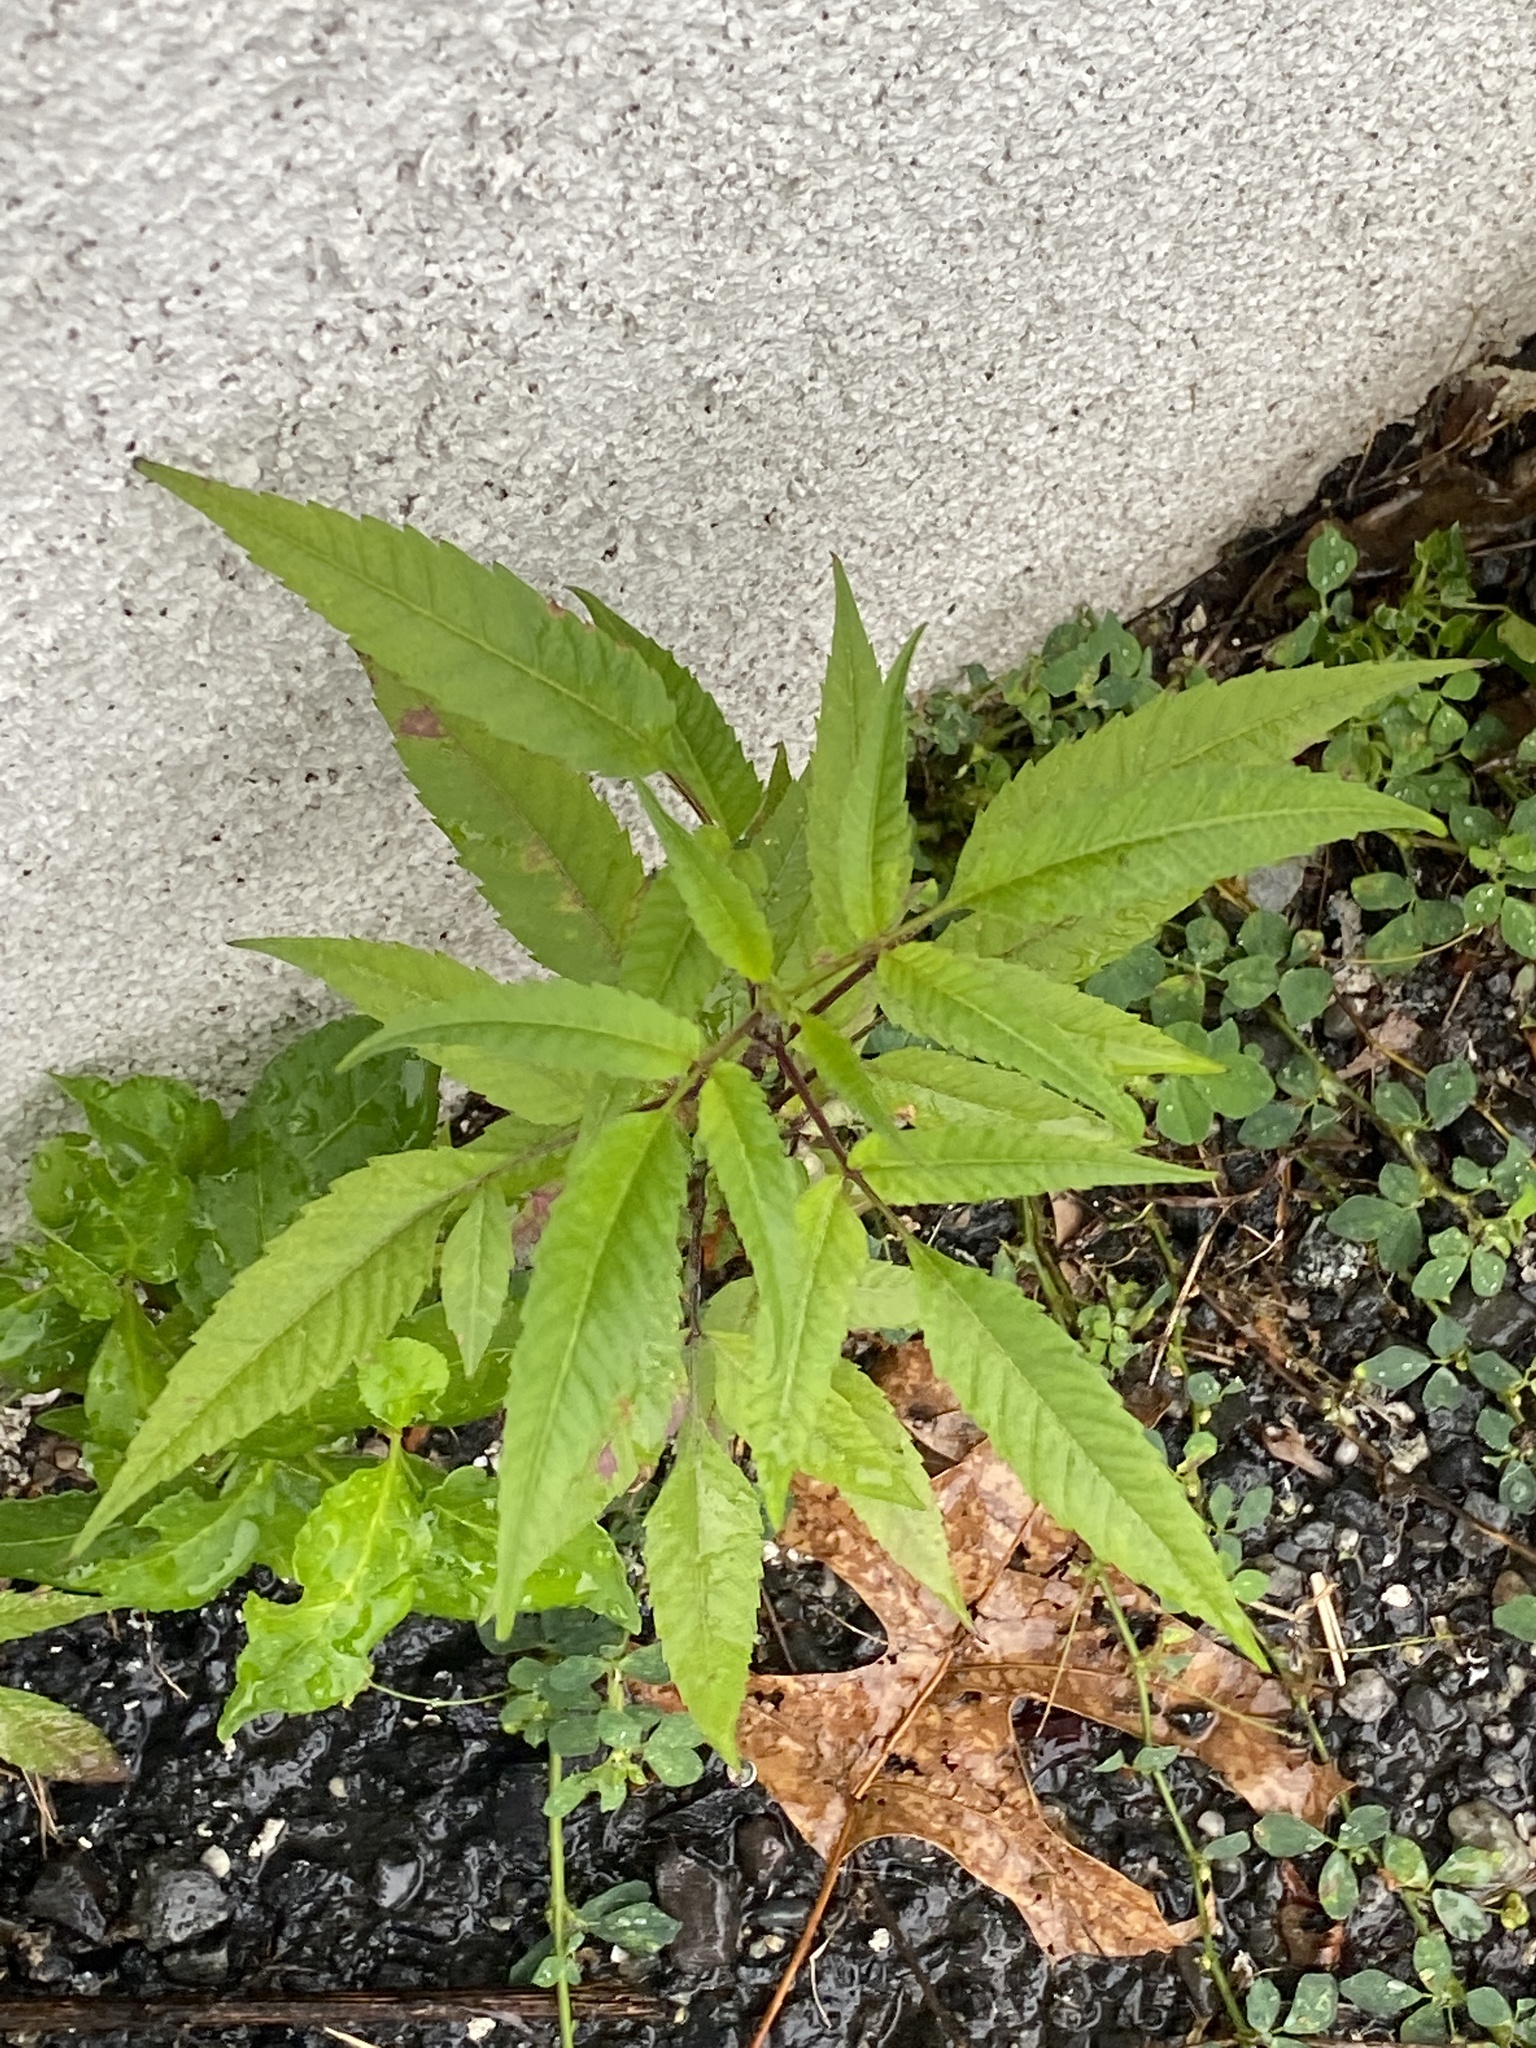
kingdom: Plantae
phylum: Tracheophyta
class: Magnoliopsida
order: Asterales
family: Asteraceae
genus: Bidens
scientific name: Bidens frondosa
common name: Beggarticks
